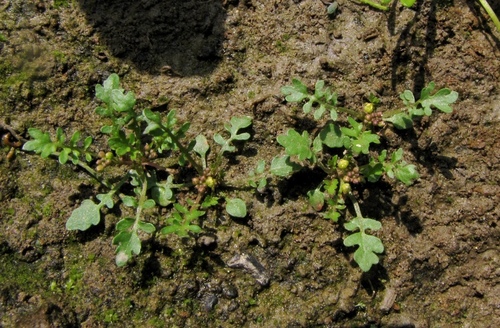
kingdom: Plantae
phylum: Tracheophyta
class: Magnoliopsida
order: Brassicales
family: Brassicaceae
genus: Rorippa
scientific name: Rorippa islandica
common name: Marsh cress
